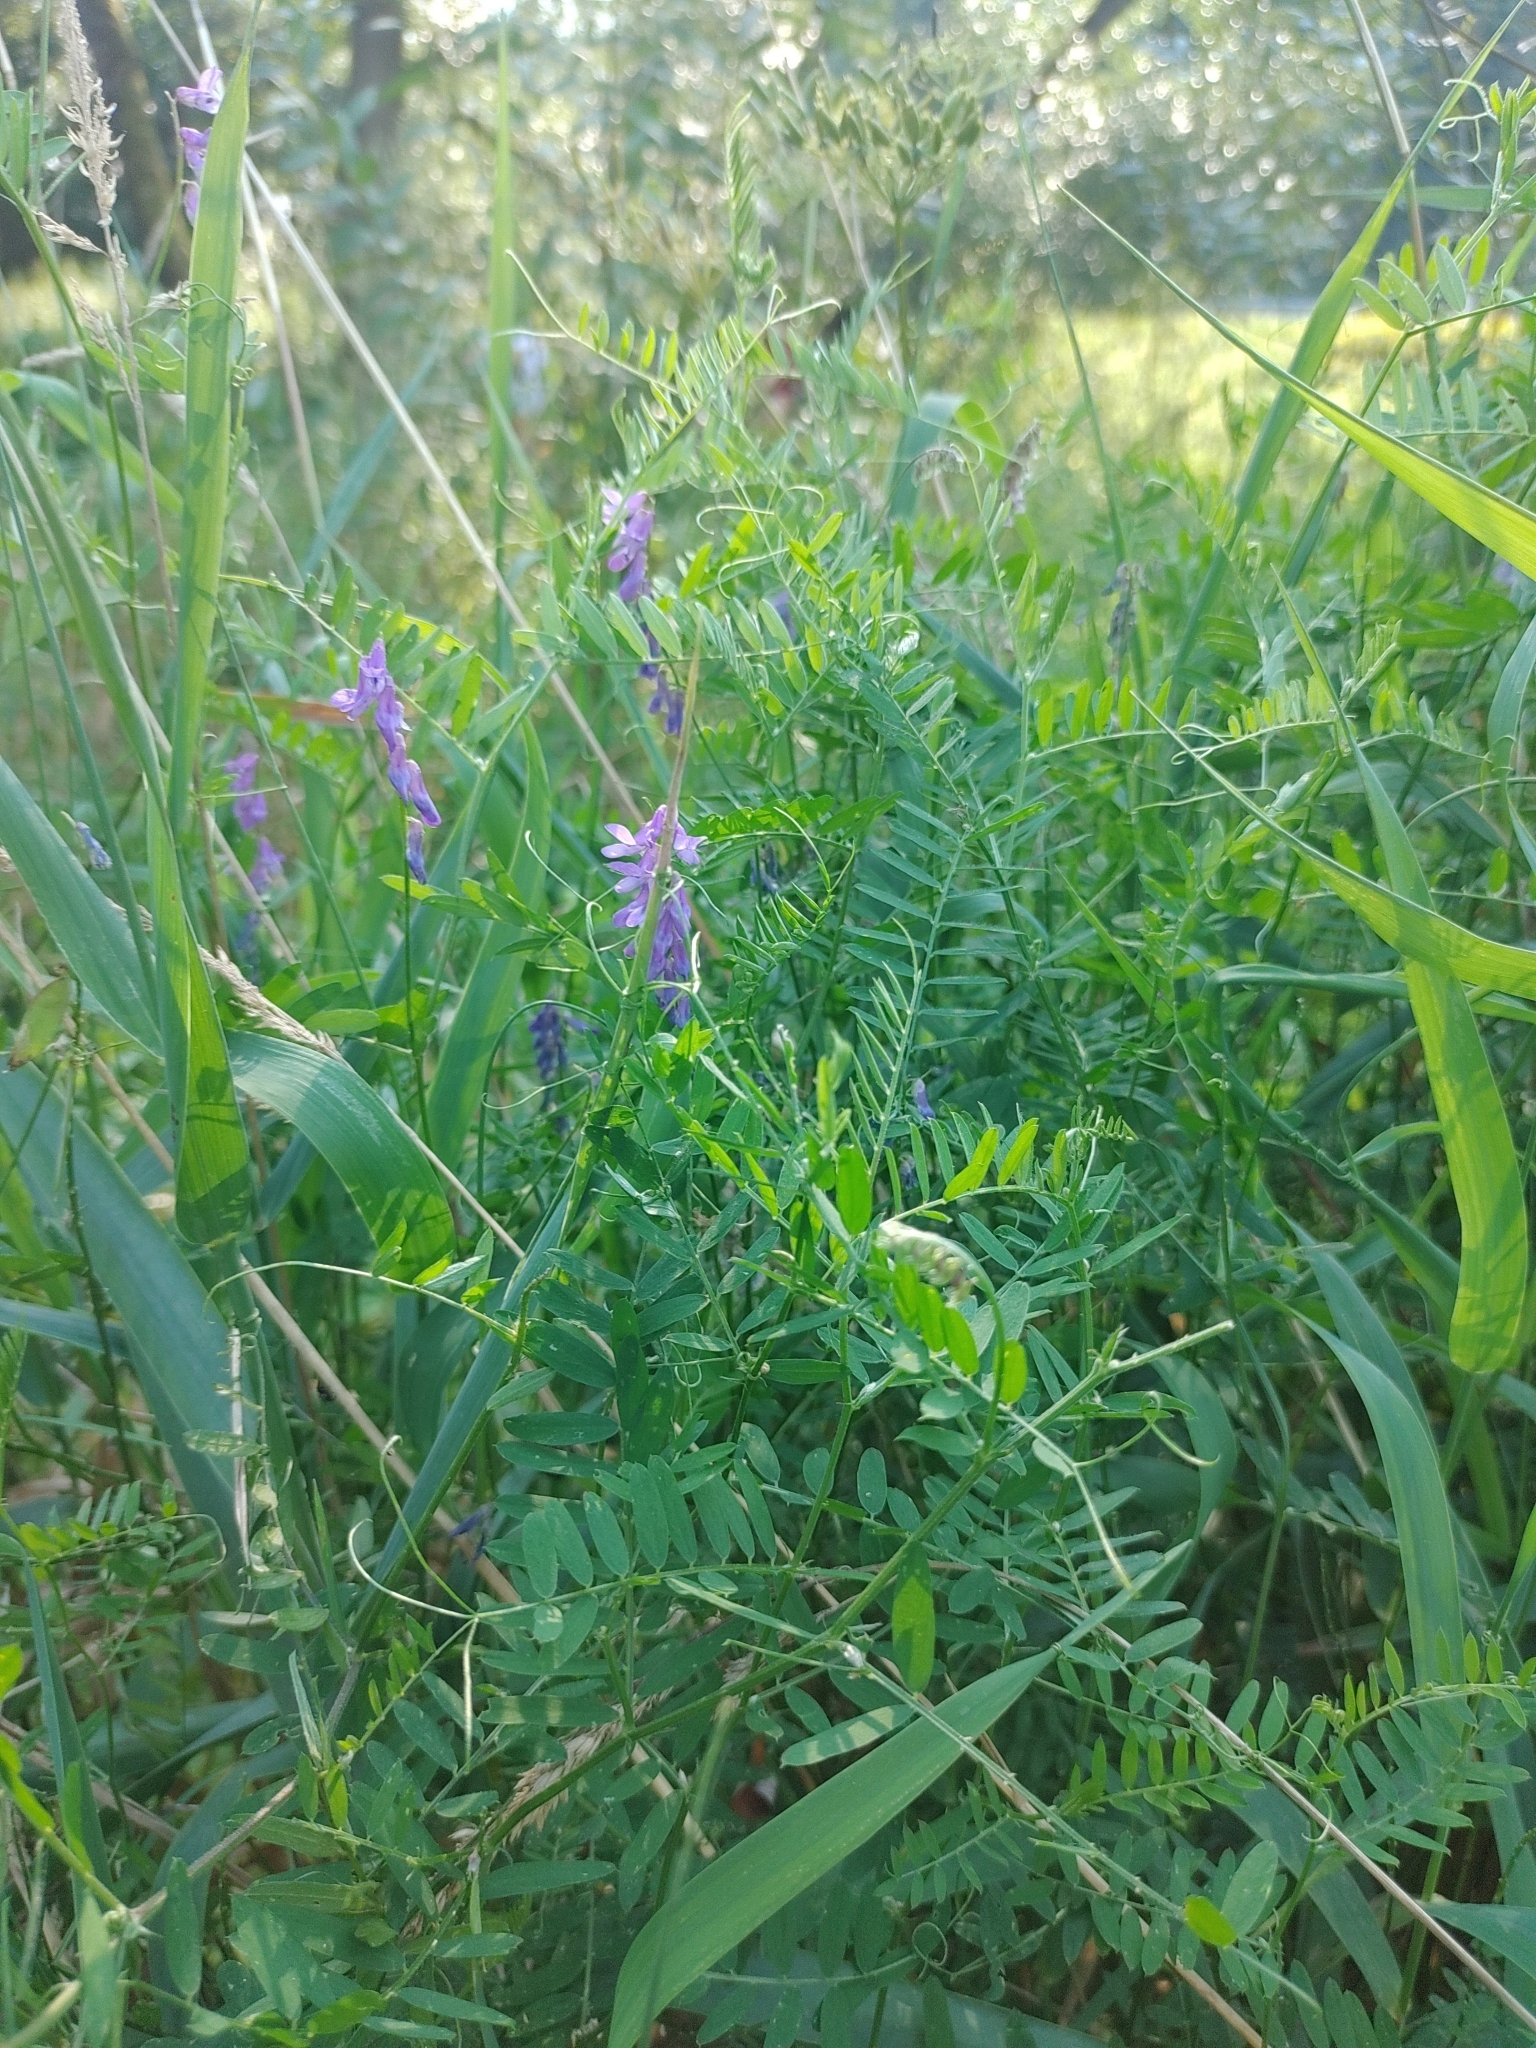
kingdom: Plantae
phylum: Tracheophyta
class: Magnoliopsida
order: Fabales
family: Fabaceae
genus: Vicia
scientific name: Vicia cracca
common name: Bird vetch
